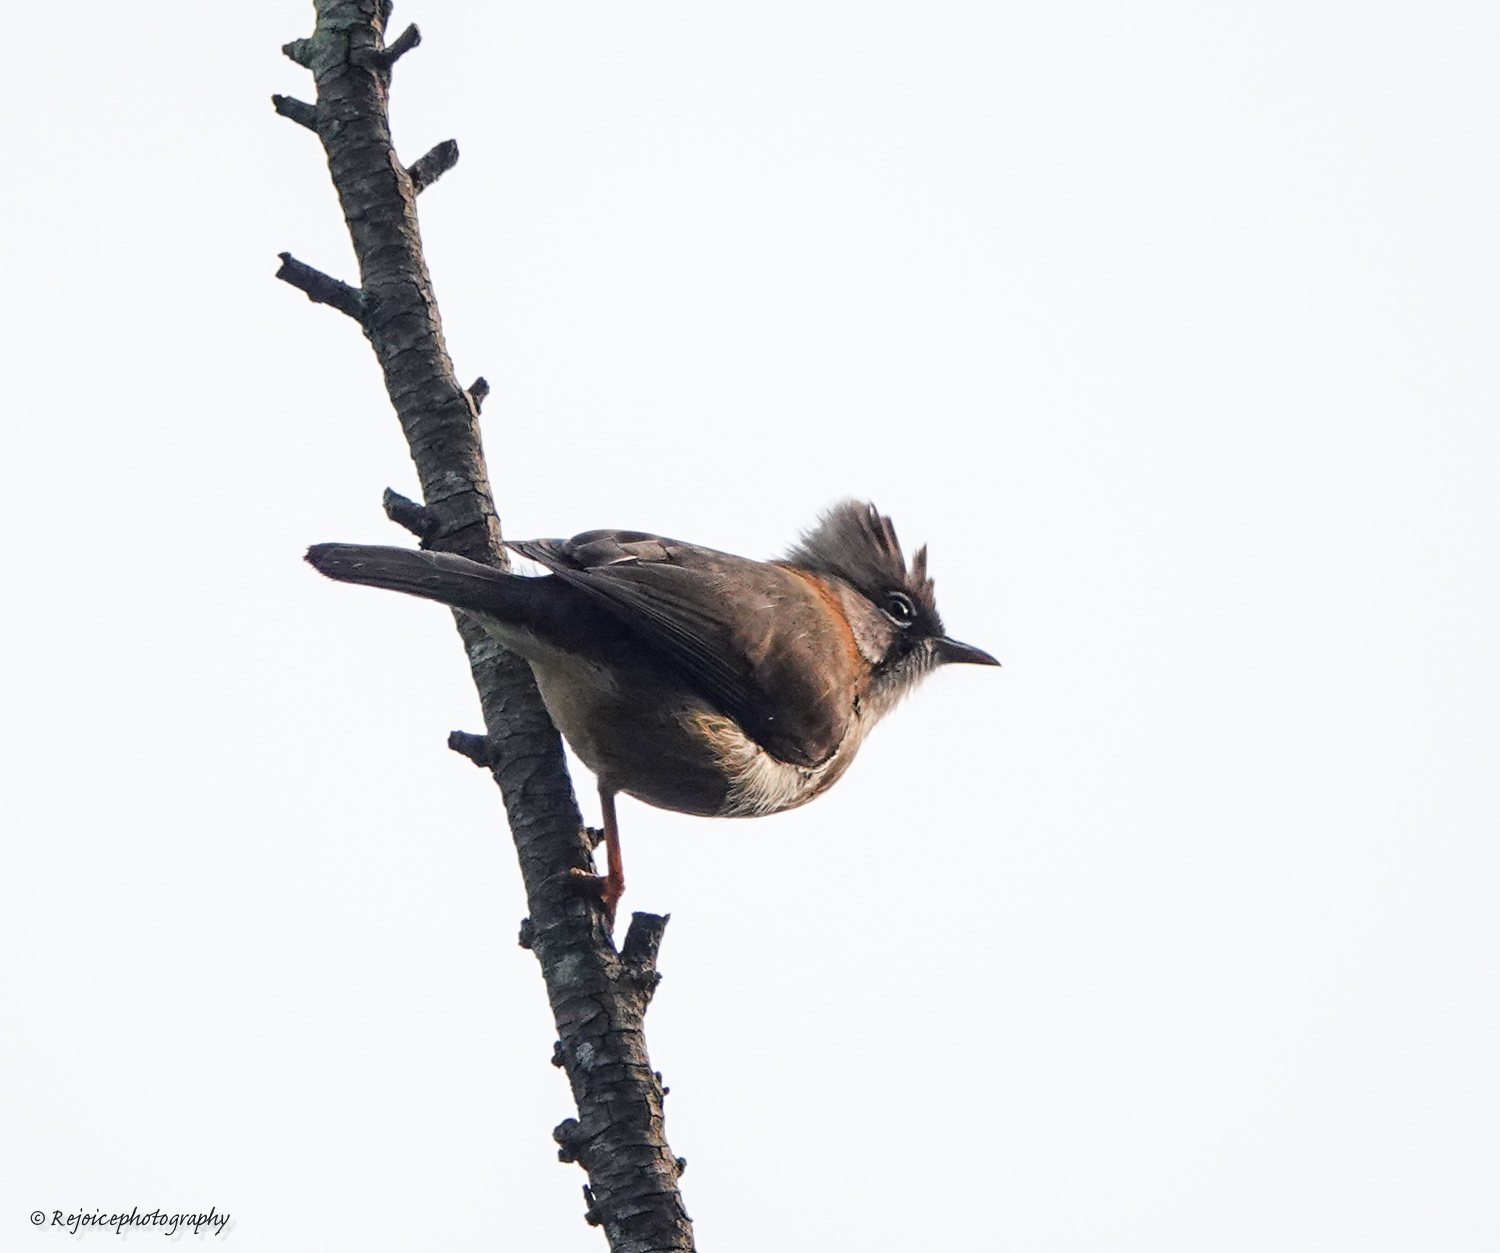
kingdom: Animalia
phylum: Chordata
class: Aves
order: Passeriformes
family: Zosteropidae
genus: Yuhina
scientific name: Yuhina flavicollis
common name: Whiskered yuhina
